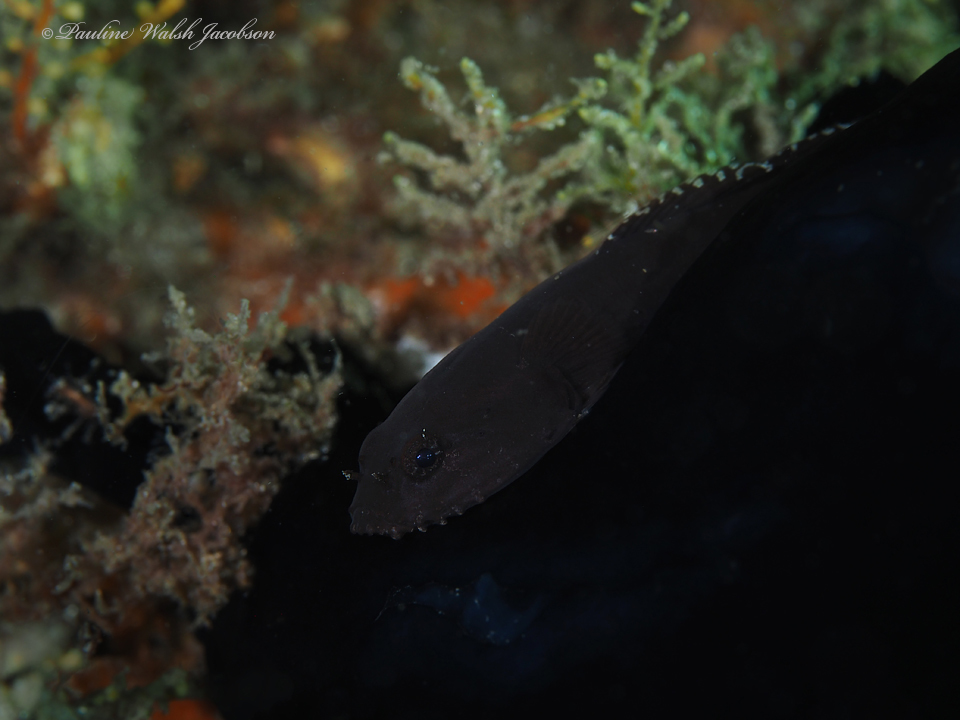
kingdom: Animalia
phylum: Chordata
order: Gobiesociformes
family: Gobiesocidae
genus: Gobiesox
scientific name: Gobiesox strumosus
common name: Skilletfish
